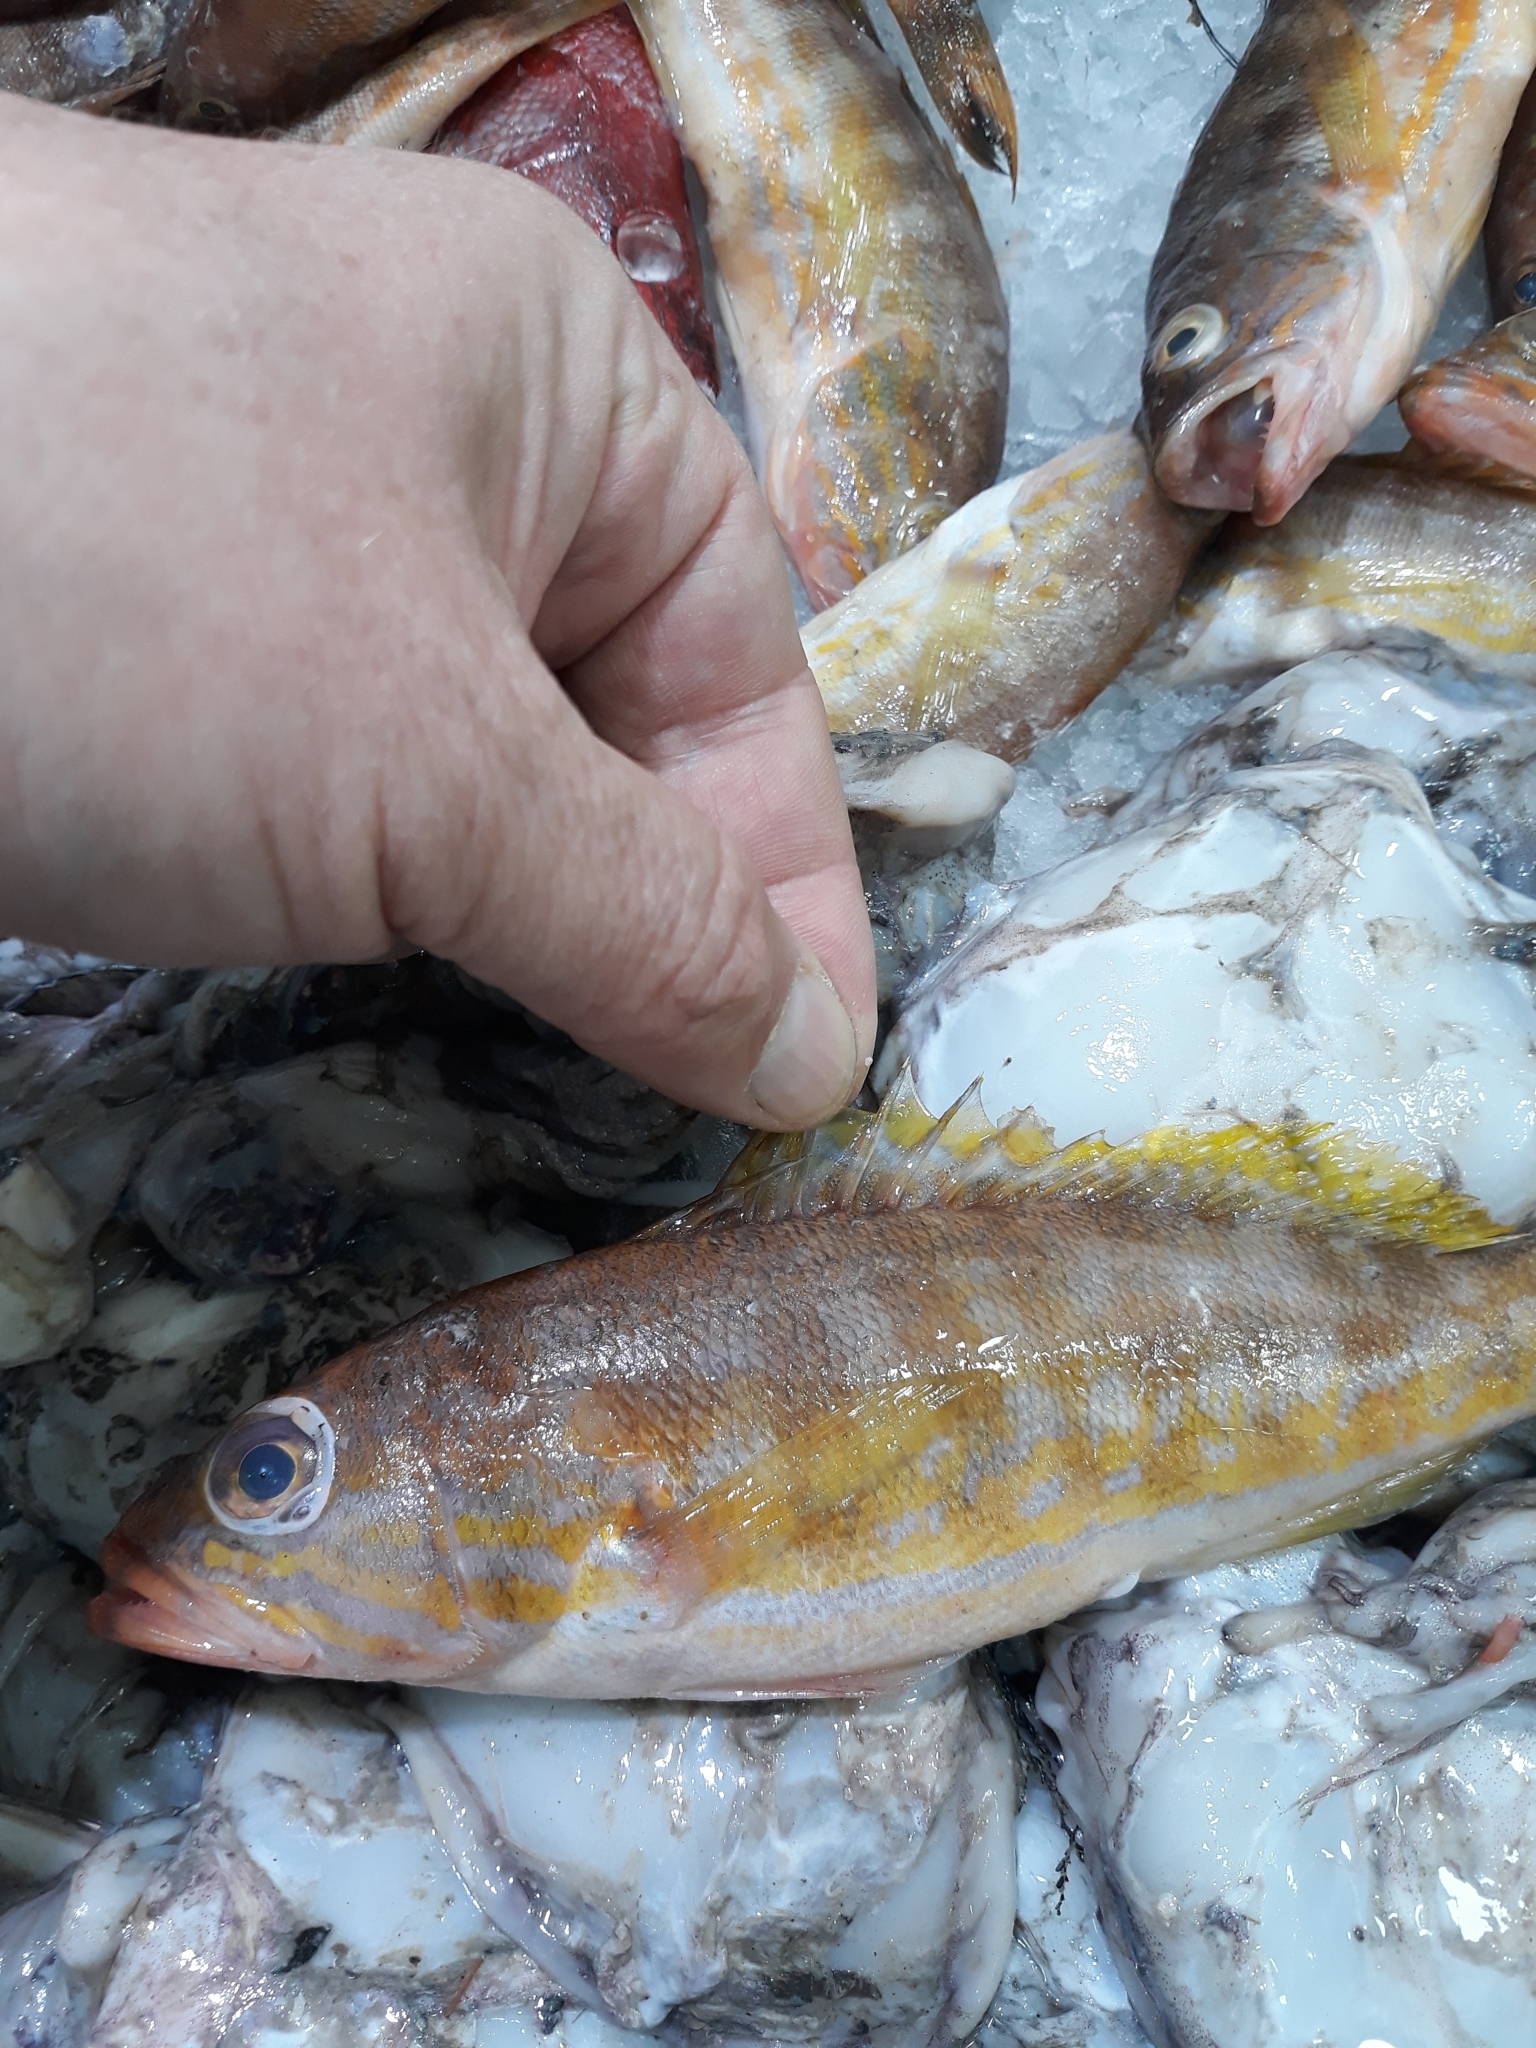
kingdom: Animalia
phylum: Chordata
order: Perciformes
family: Serranidae
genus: Serranus
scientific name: Serranus cabrilla
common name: Comber
